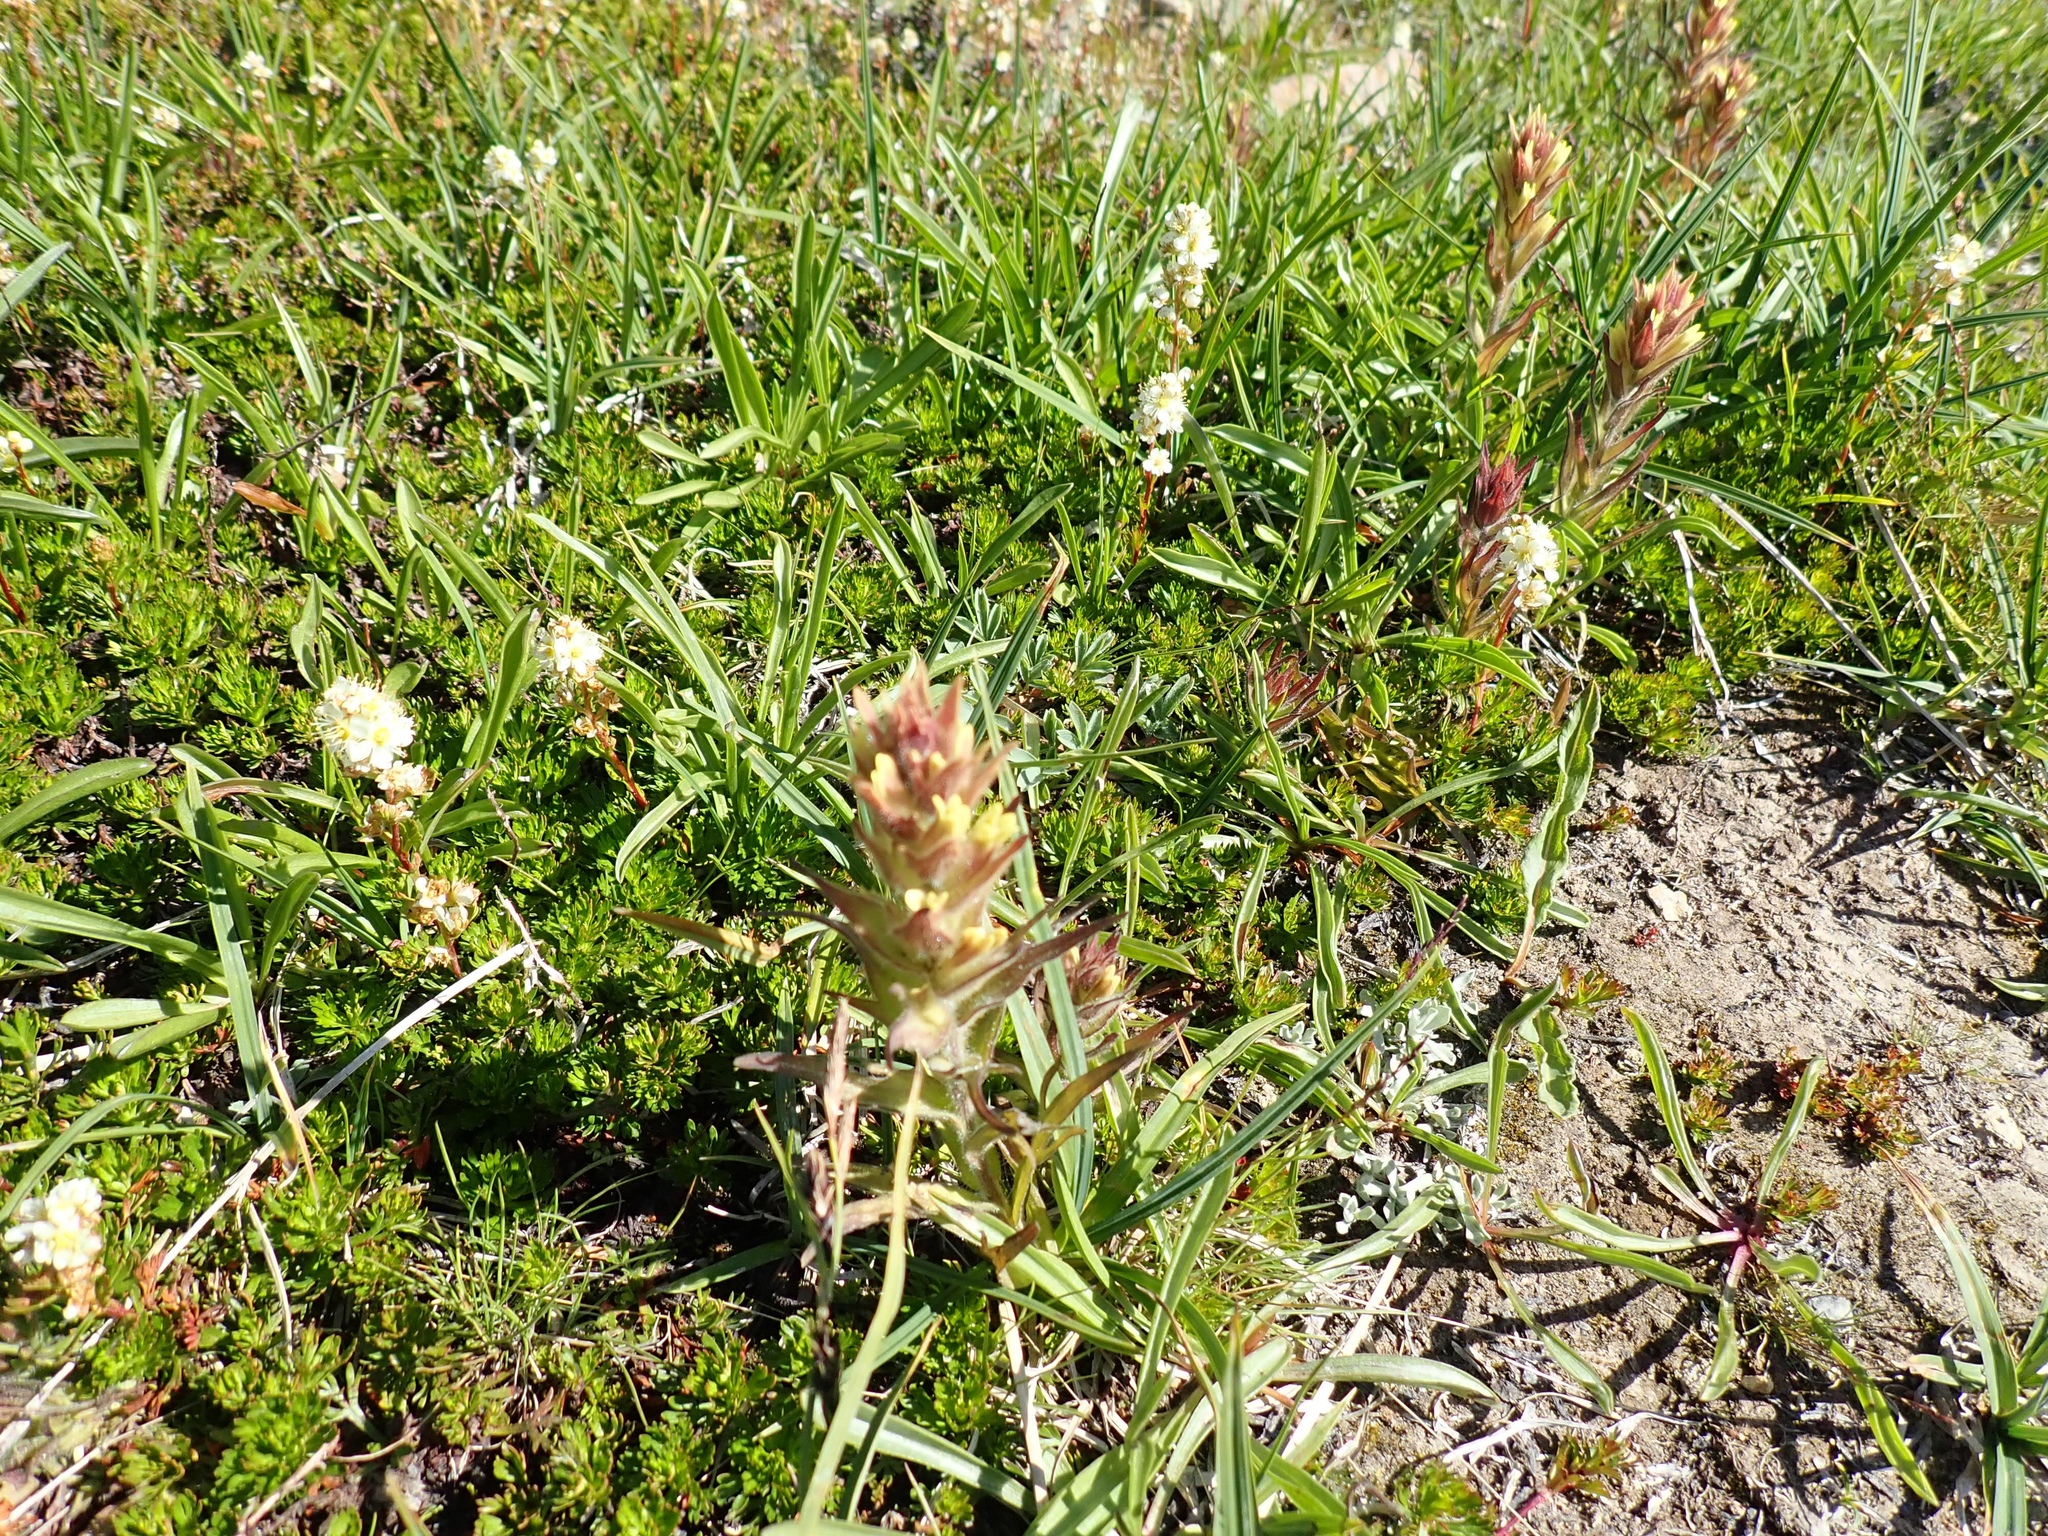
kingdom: Plantae
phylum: Tracheophyta
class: Magnoliopsida
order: Lamiales
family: Orobanchaceae
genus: Castilleja
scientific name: Castilleja cryptantha
